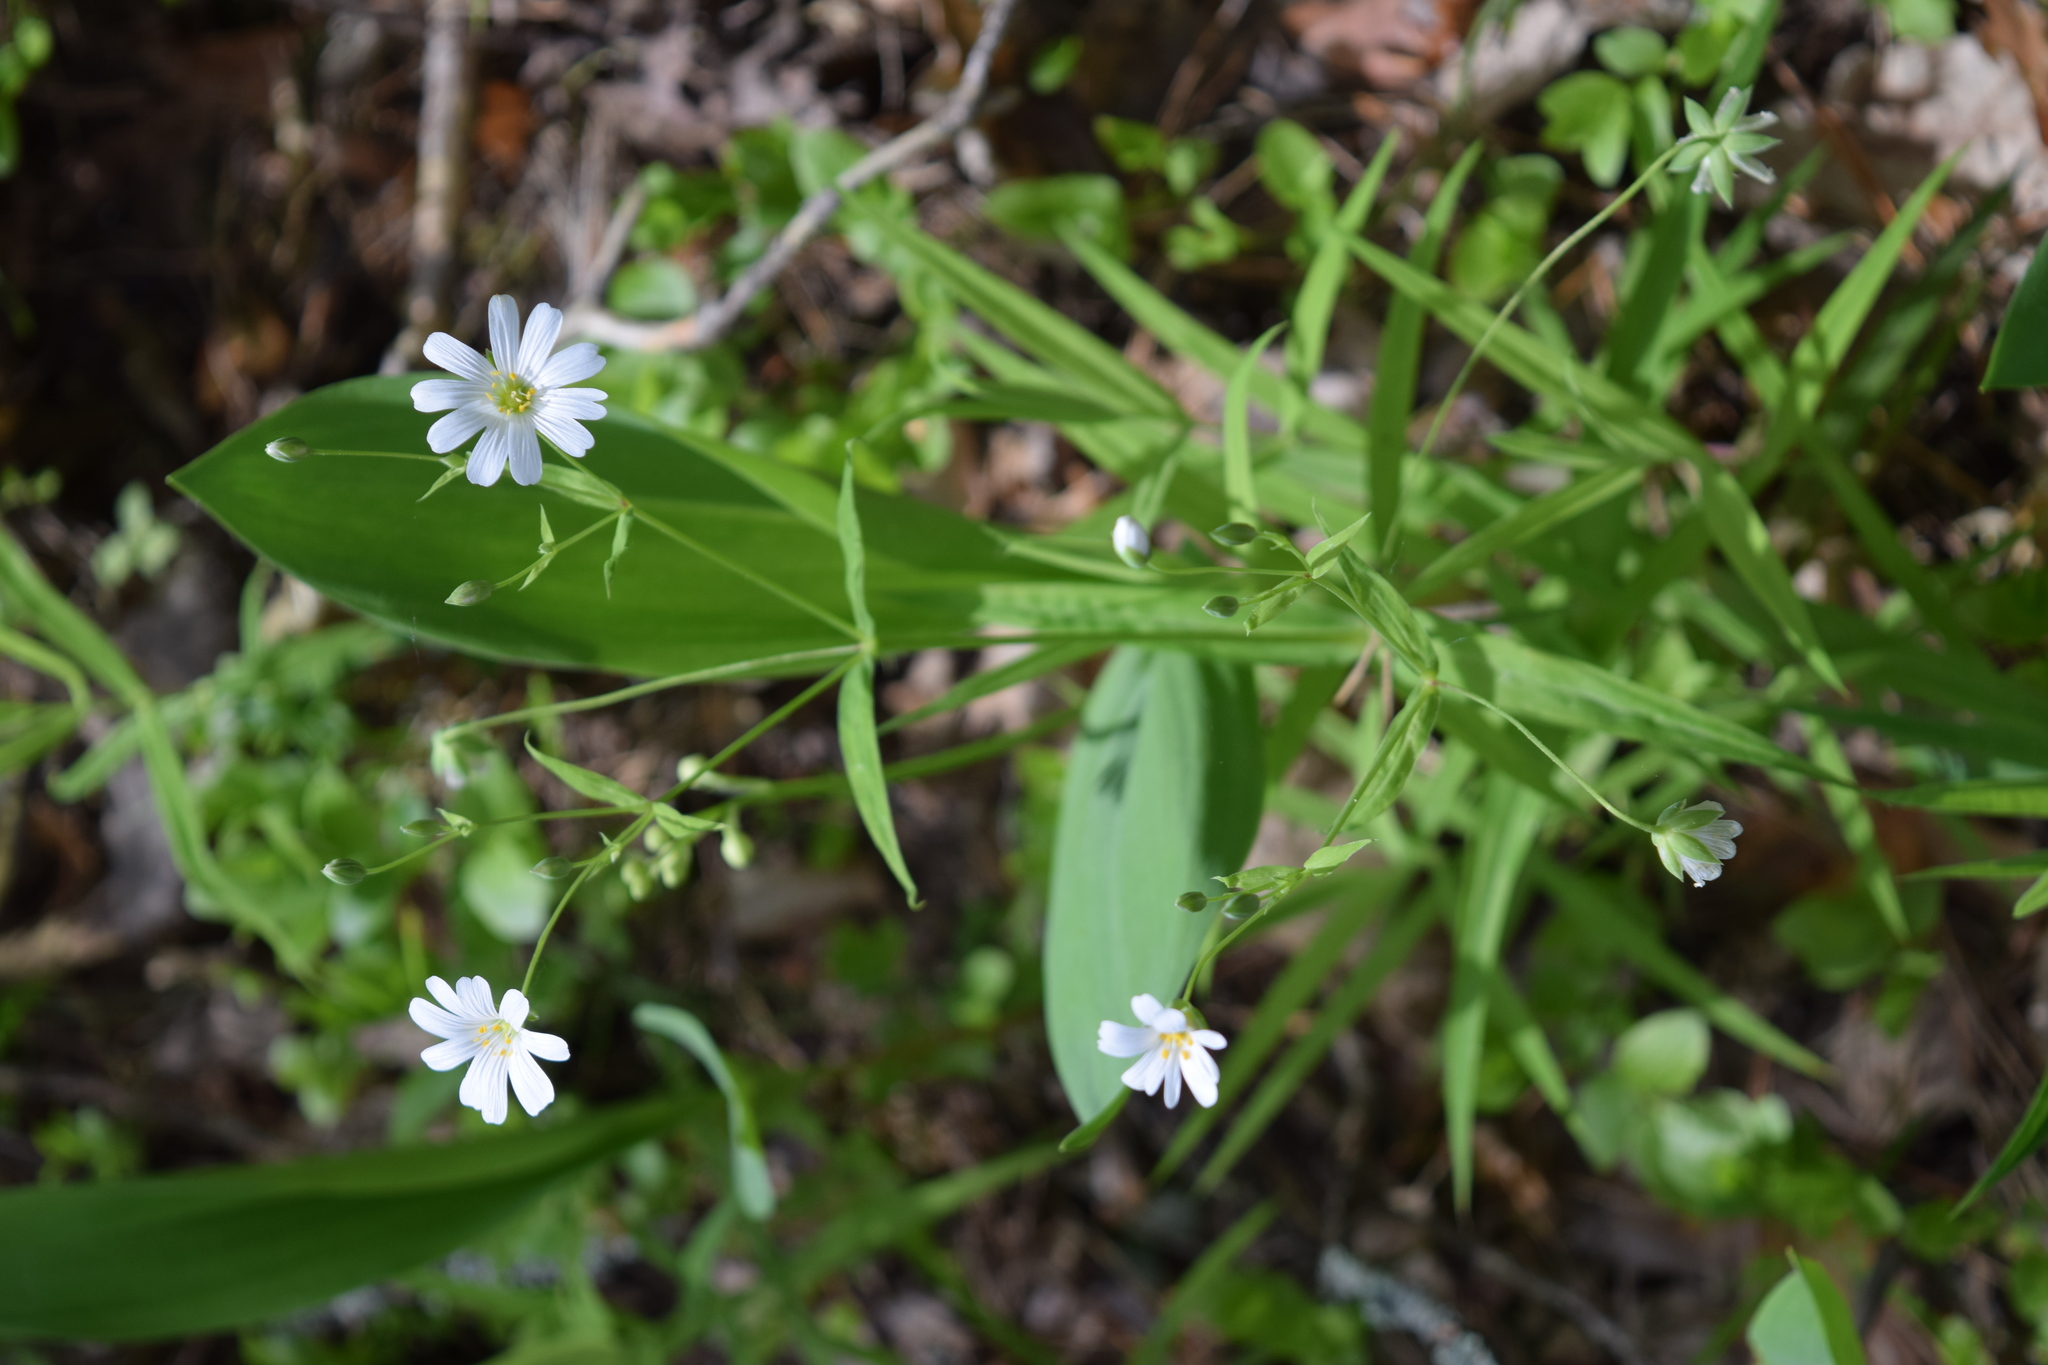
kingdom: Plantae
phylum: Tracheophyta
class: Magnoliopsida
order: Caryophyllales
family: Caryophyllaceae
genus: Rabelera
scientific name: Rabelera holostea
